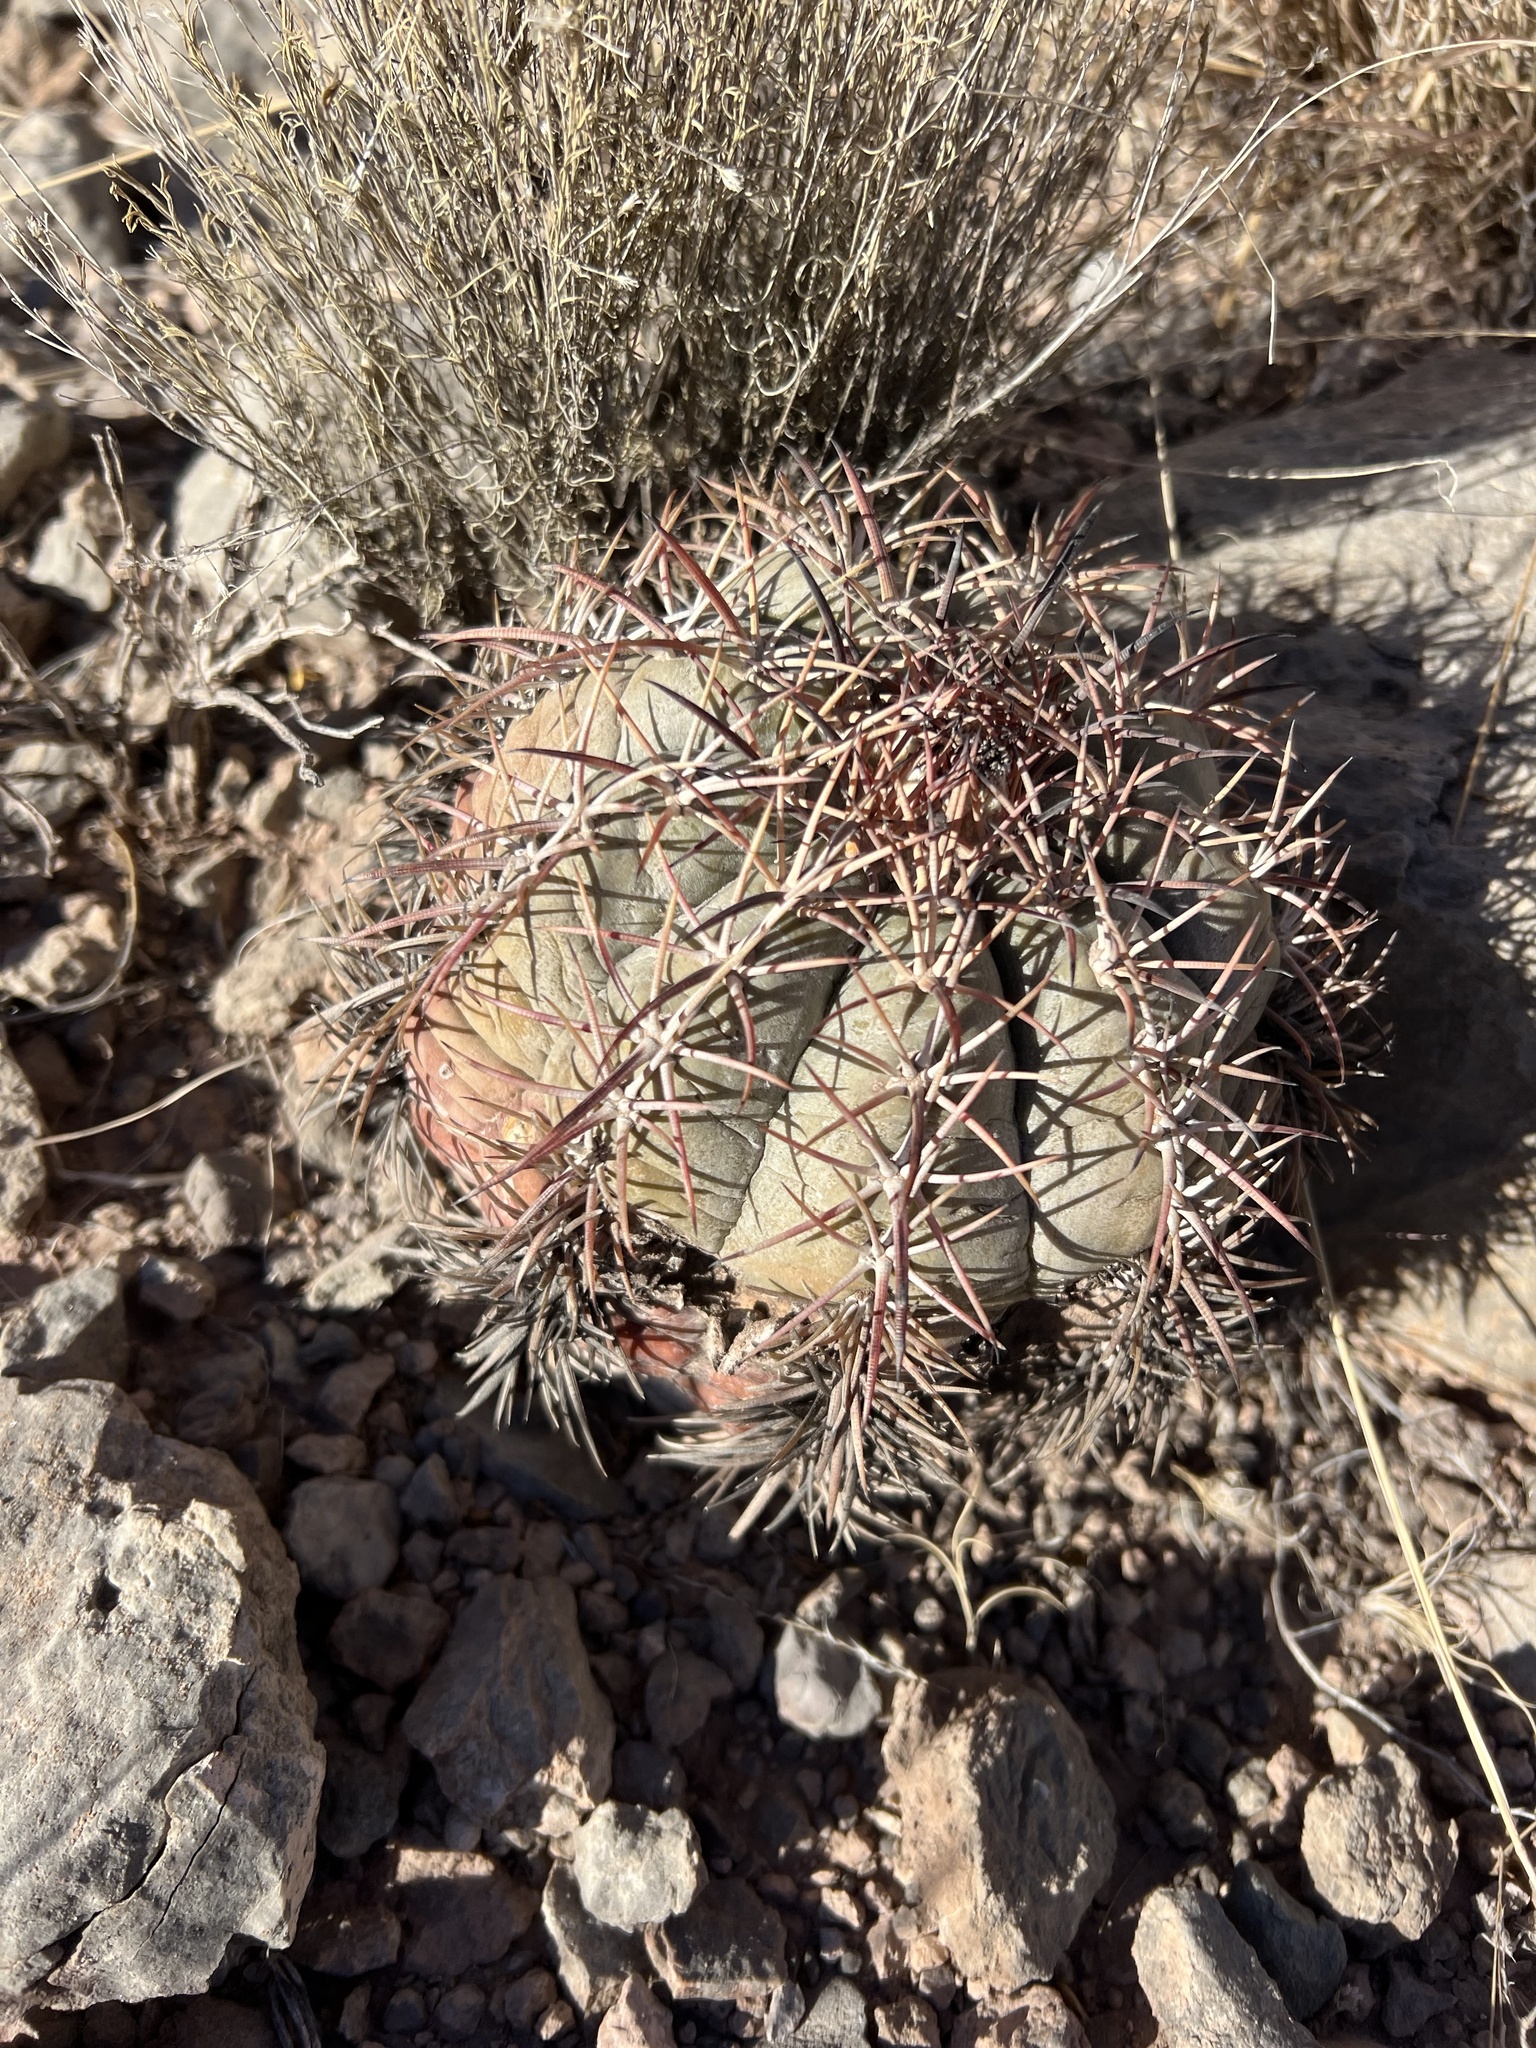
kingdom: Plantae
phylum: Tracheophyta
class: Magnoliopsida
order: Caryophyllales
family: Cactaceae
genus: Echinocactus
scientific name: Echinocactus horizonthalonius
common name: Devilshead
